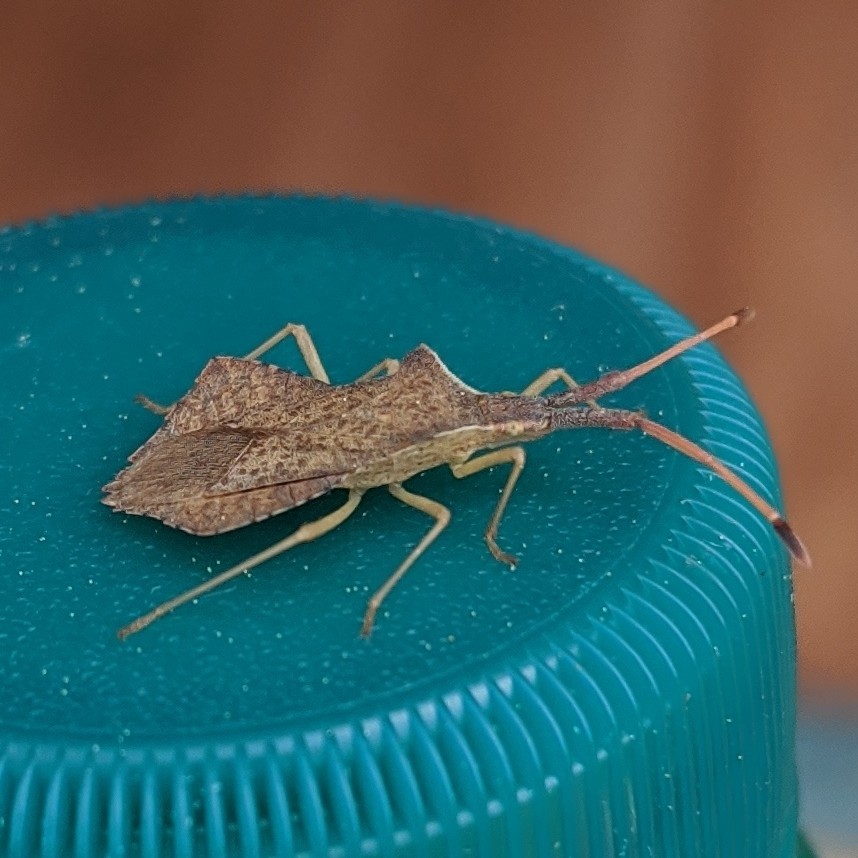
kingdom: Animalia
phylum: Arthropoda
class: Insecta
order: Hemiptera
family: Coreidae
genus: Syromastus
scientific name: Syromastus rhombeus
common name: Rhombic leatherbug
